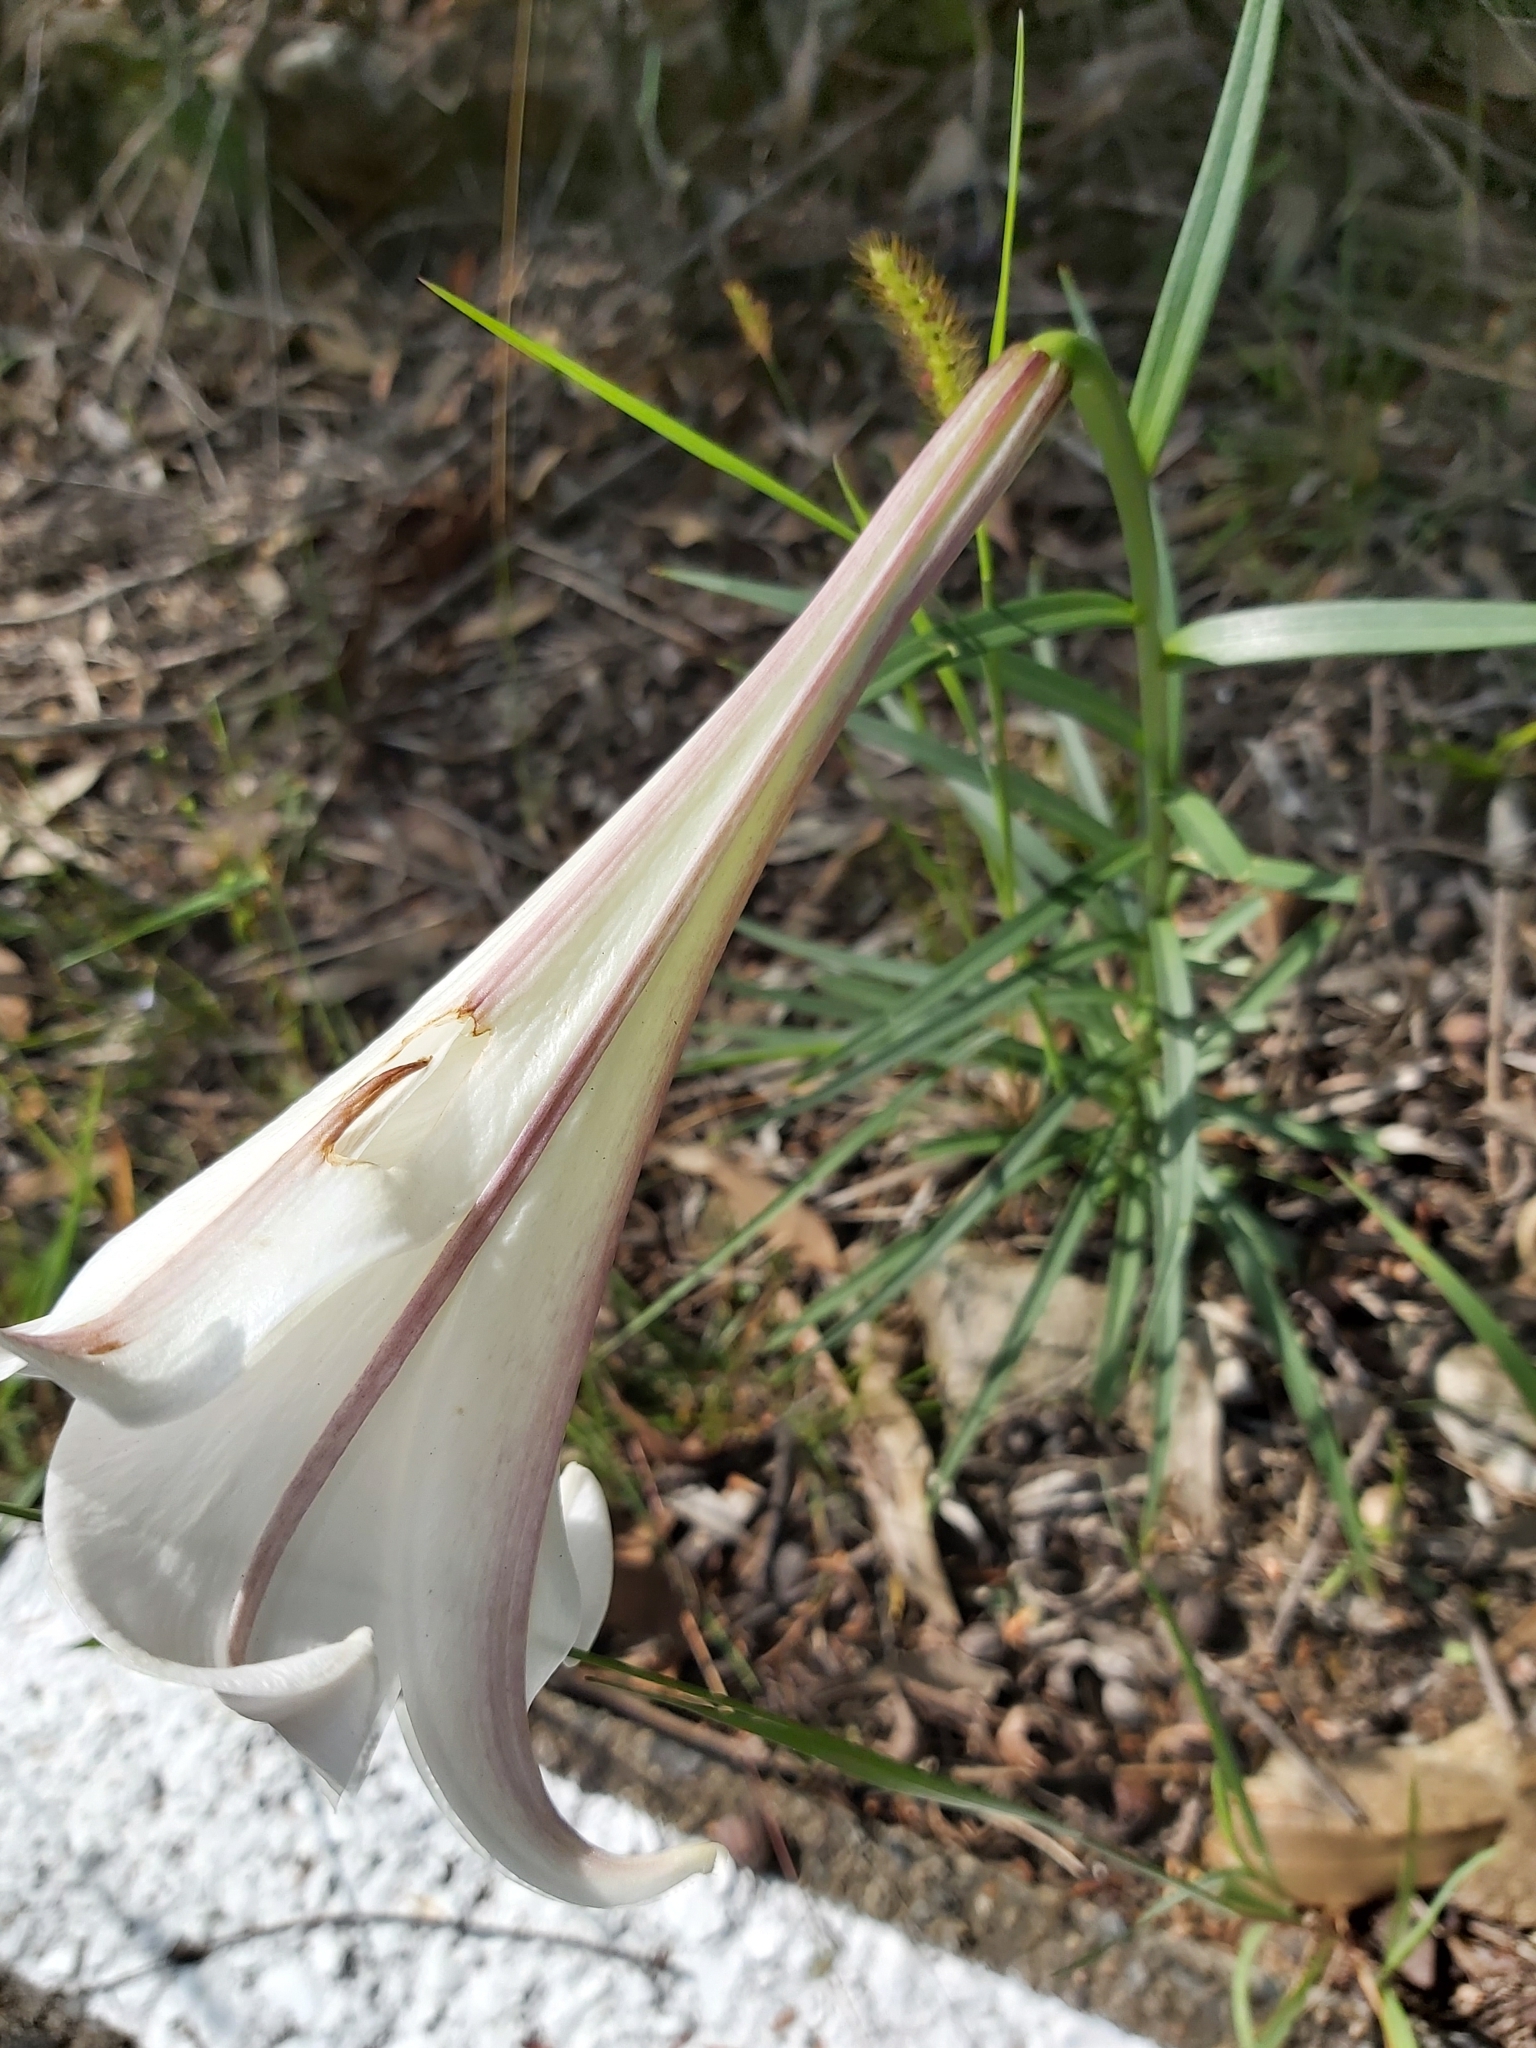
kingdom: Plantae
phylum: Tracheophyta
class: Liliopsida
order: Liliales
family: Liliaceae
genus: Lilium
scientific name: Lilium formosanum
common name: Formosa lily
